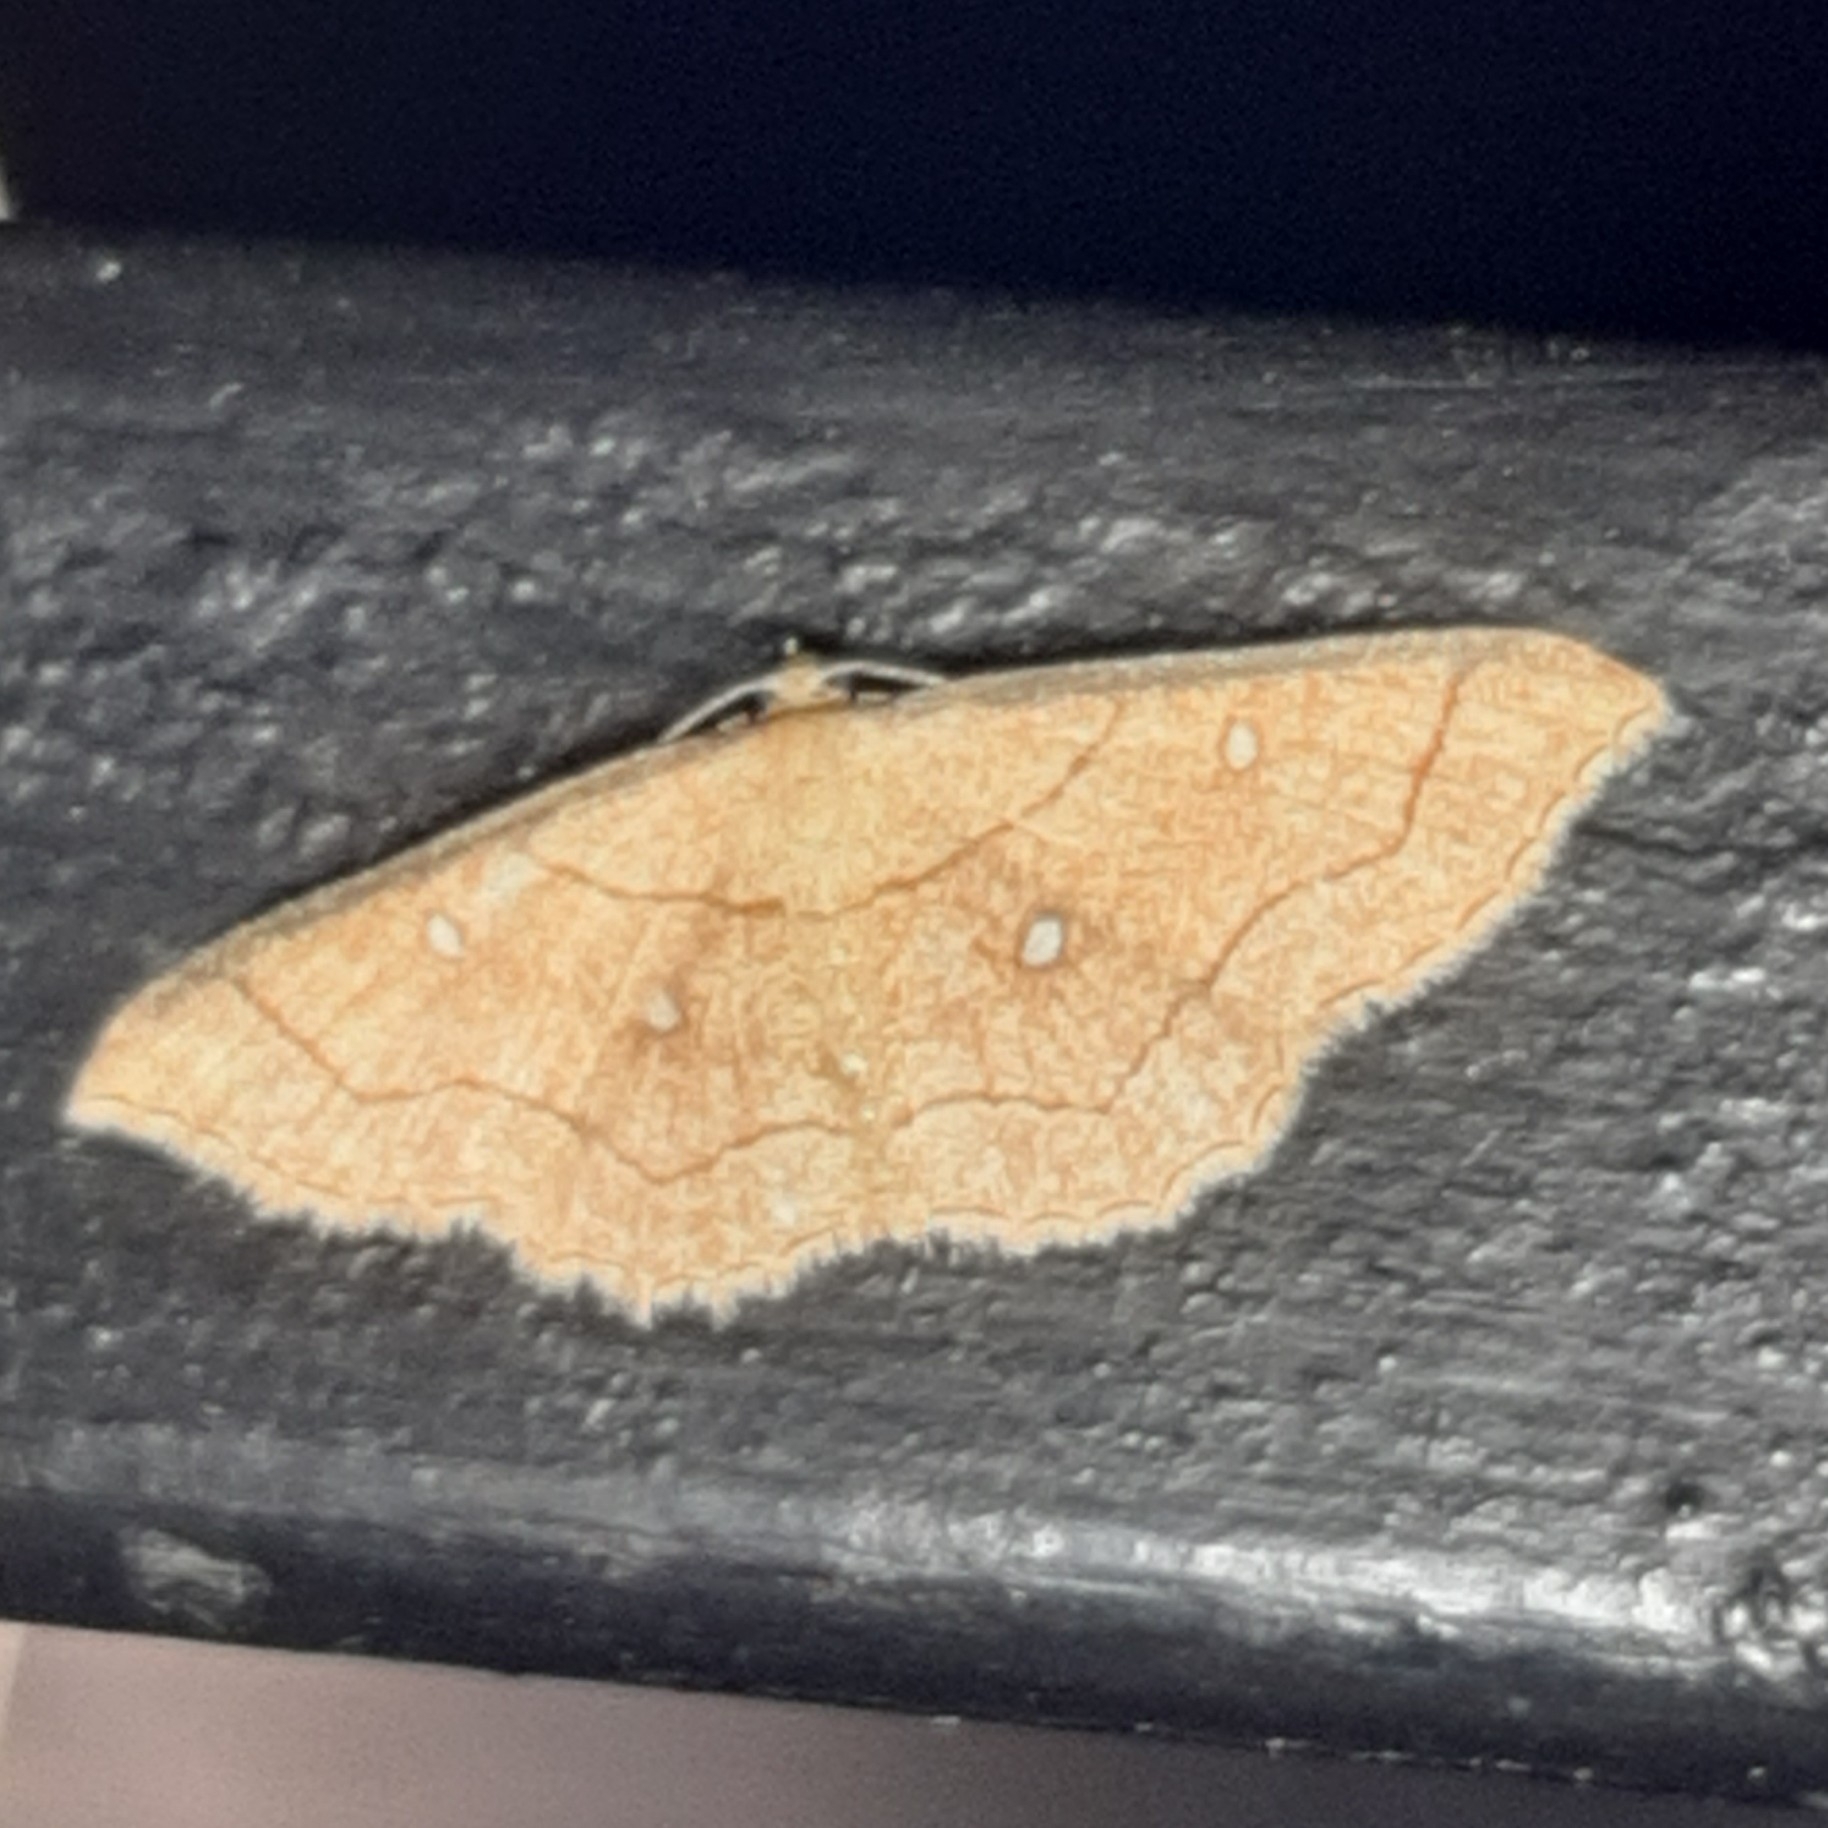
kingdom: Animalia
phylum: Arthropoda
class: Insecta
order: Lepidoptera
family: Geometridae
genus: Cyclophora
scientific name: Cyclophora coecaria
